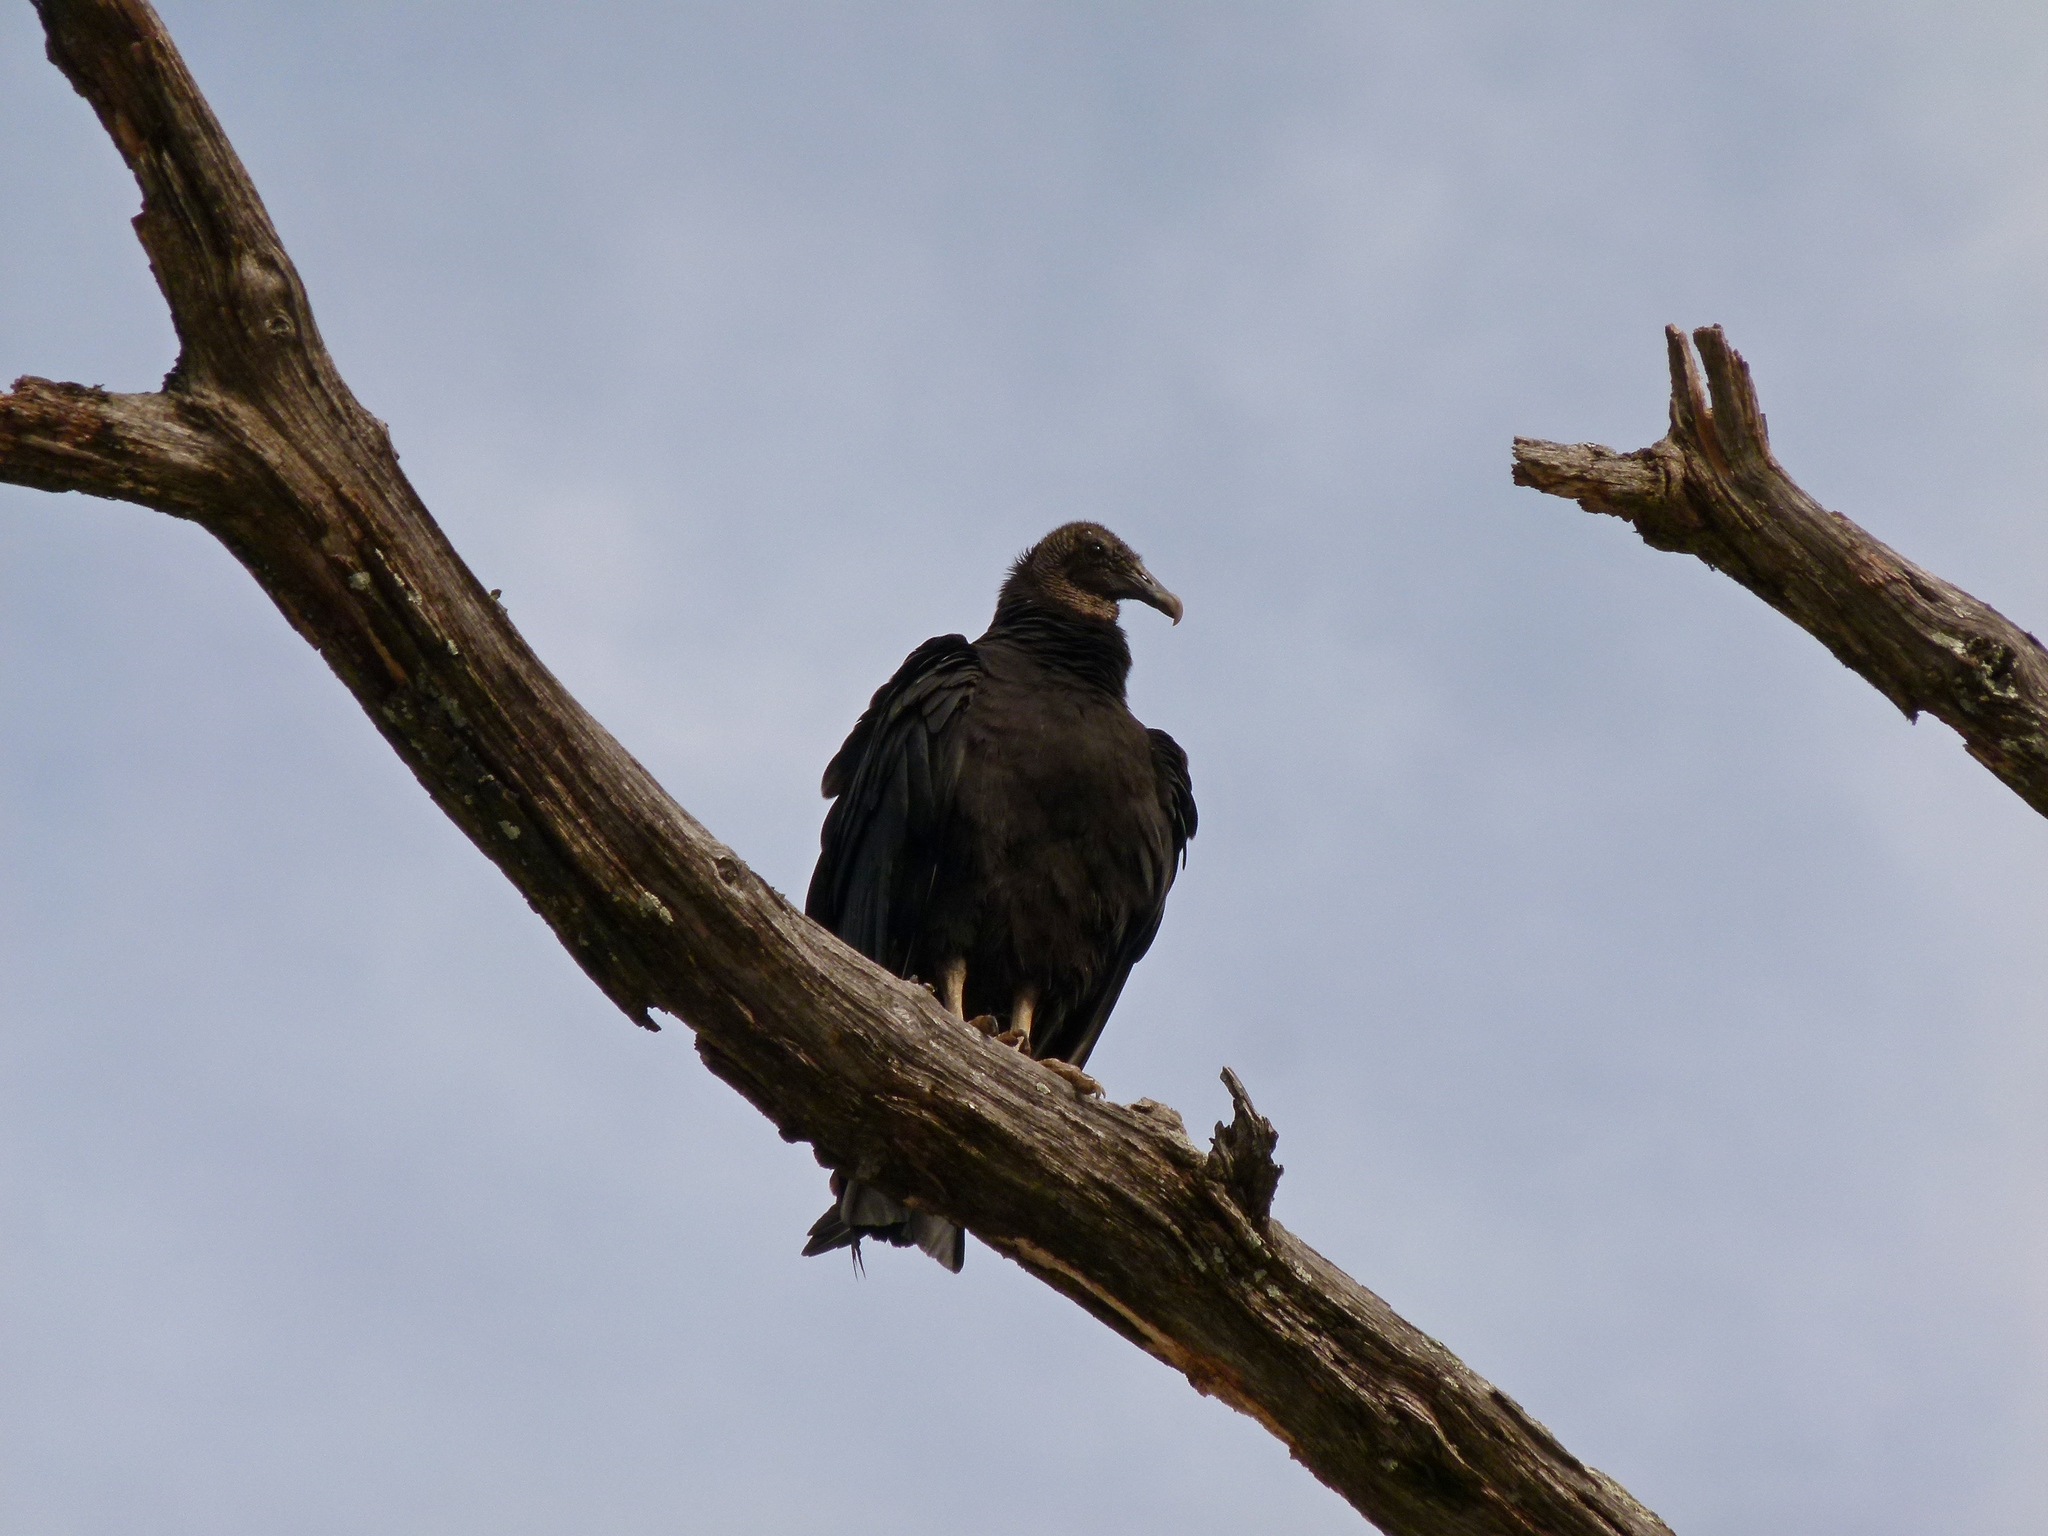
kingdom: Animalia
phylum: Chordata
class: Aves
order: Accipitriformes
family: Cathartidae
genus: Coragyps
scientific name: Coragyps atratus
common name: Black vulture
